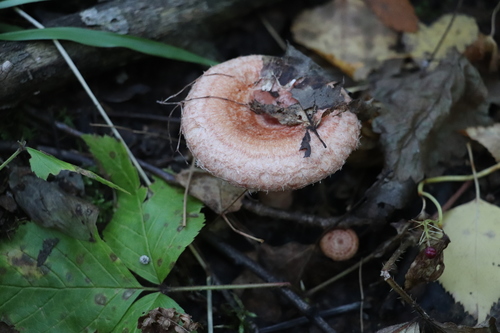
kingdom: Fungi
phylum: Basidiomycota
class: Agaricomycetes
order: Russulales
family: Russulaceae
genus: Lactarius
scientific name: Lactarius torminosus
